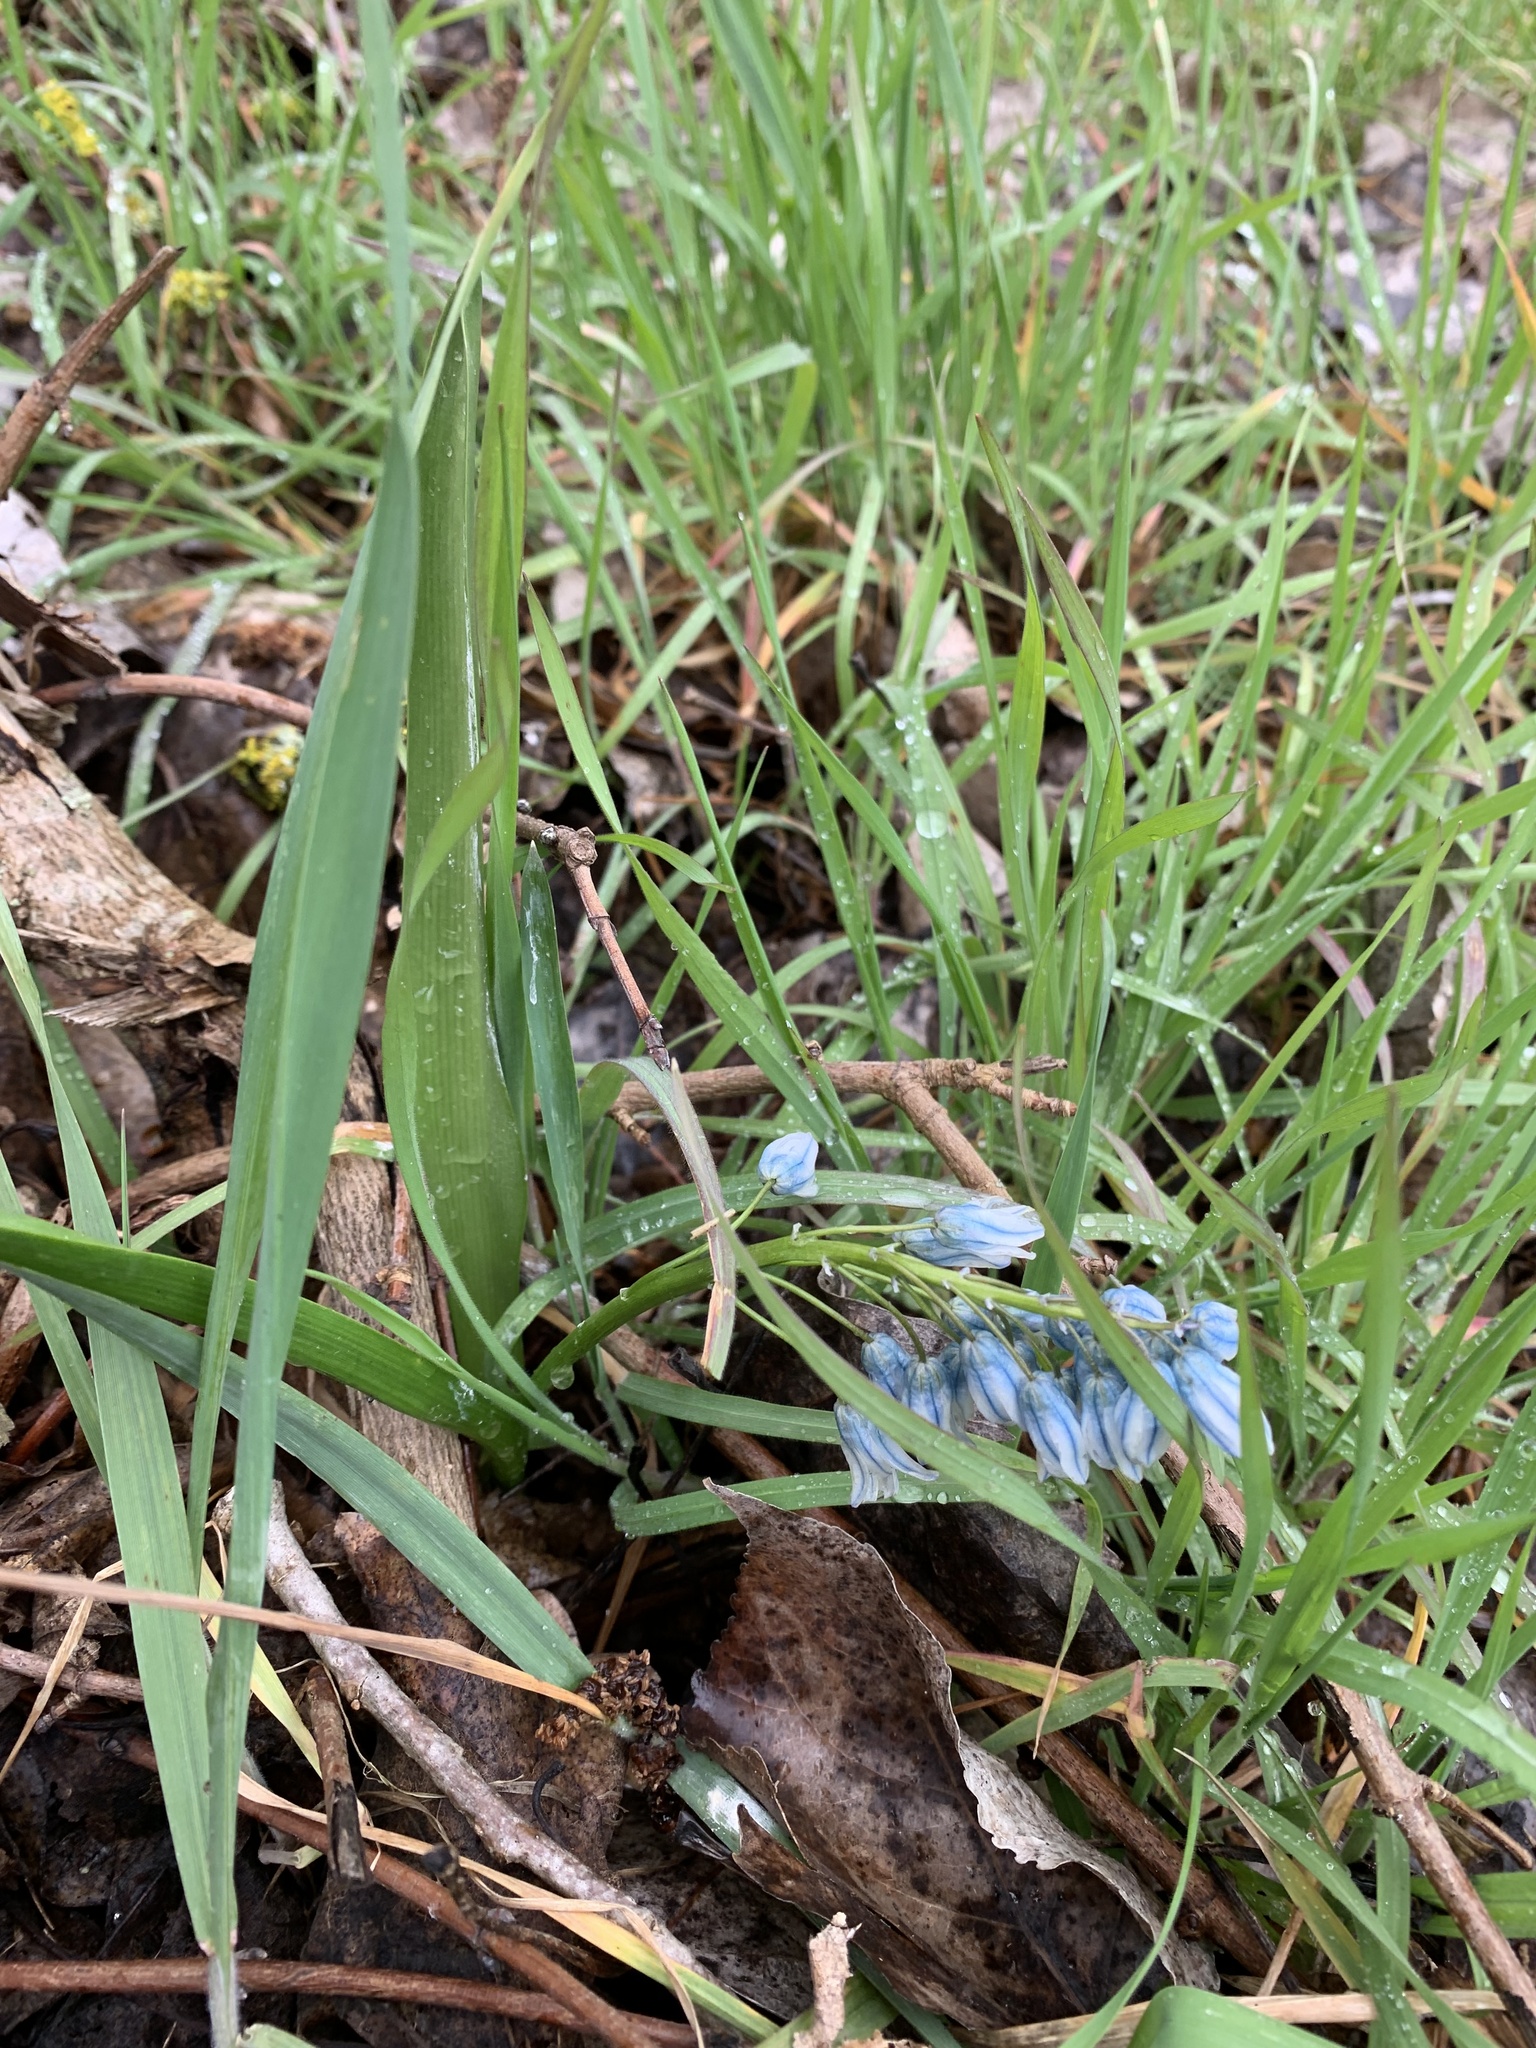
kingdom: Plantae
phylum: Tracheophyta
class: Liliopsida
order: Asparagales
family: Asparagaceae
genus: Puschkinia
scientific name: Puschkinia scilloides
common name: Striped squill
